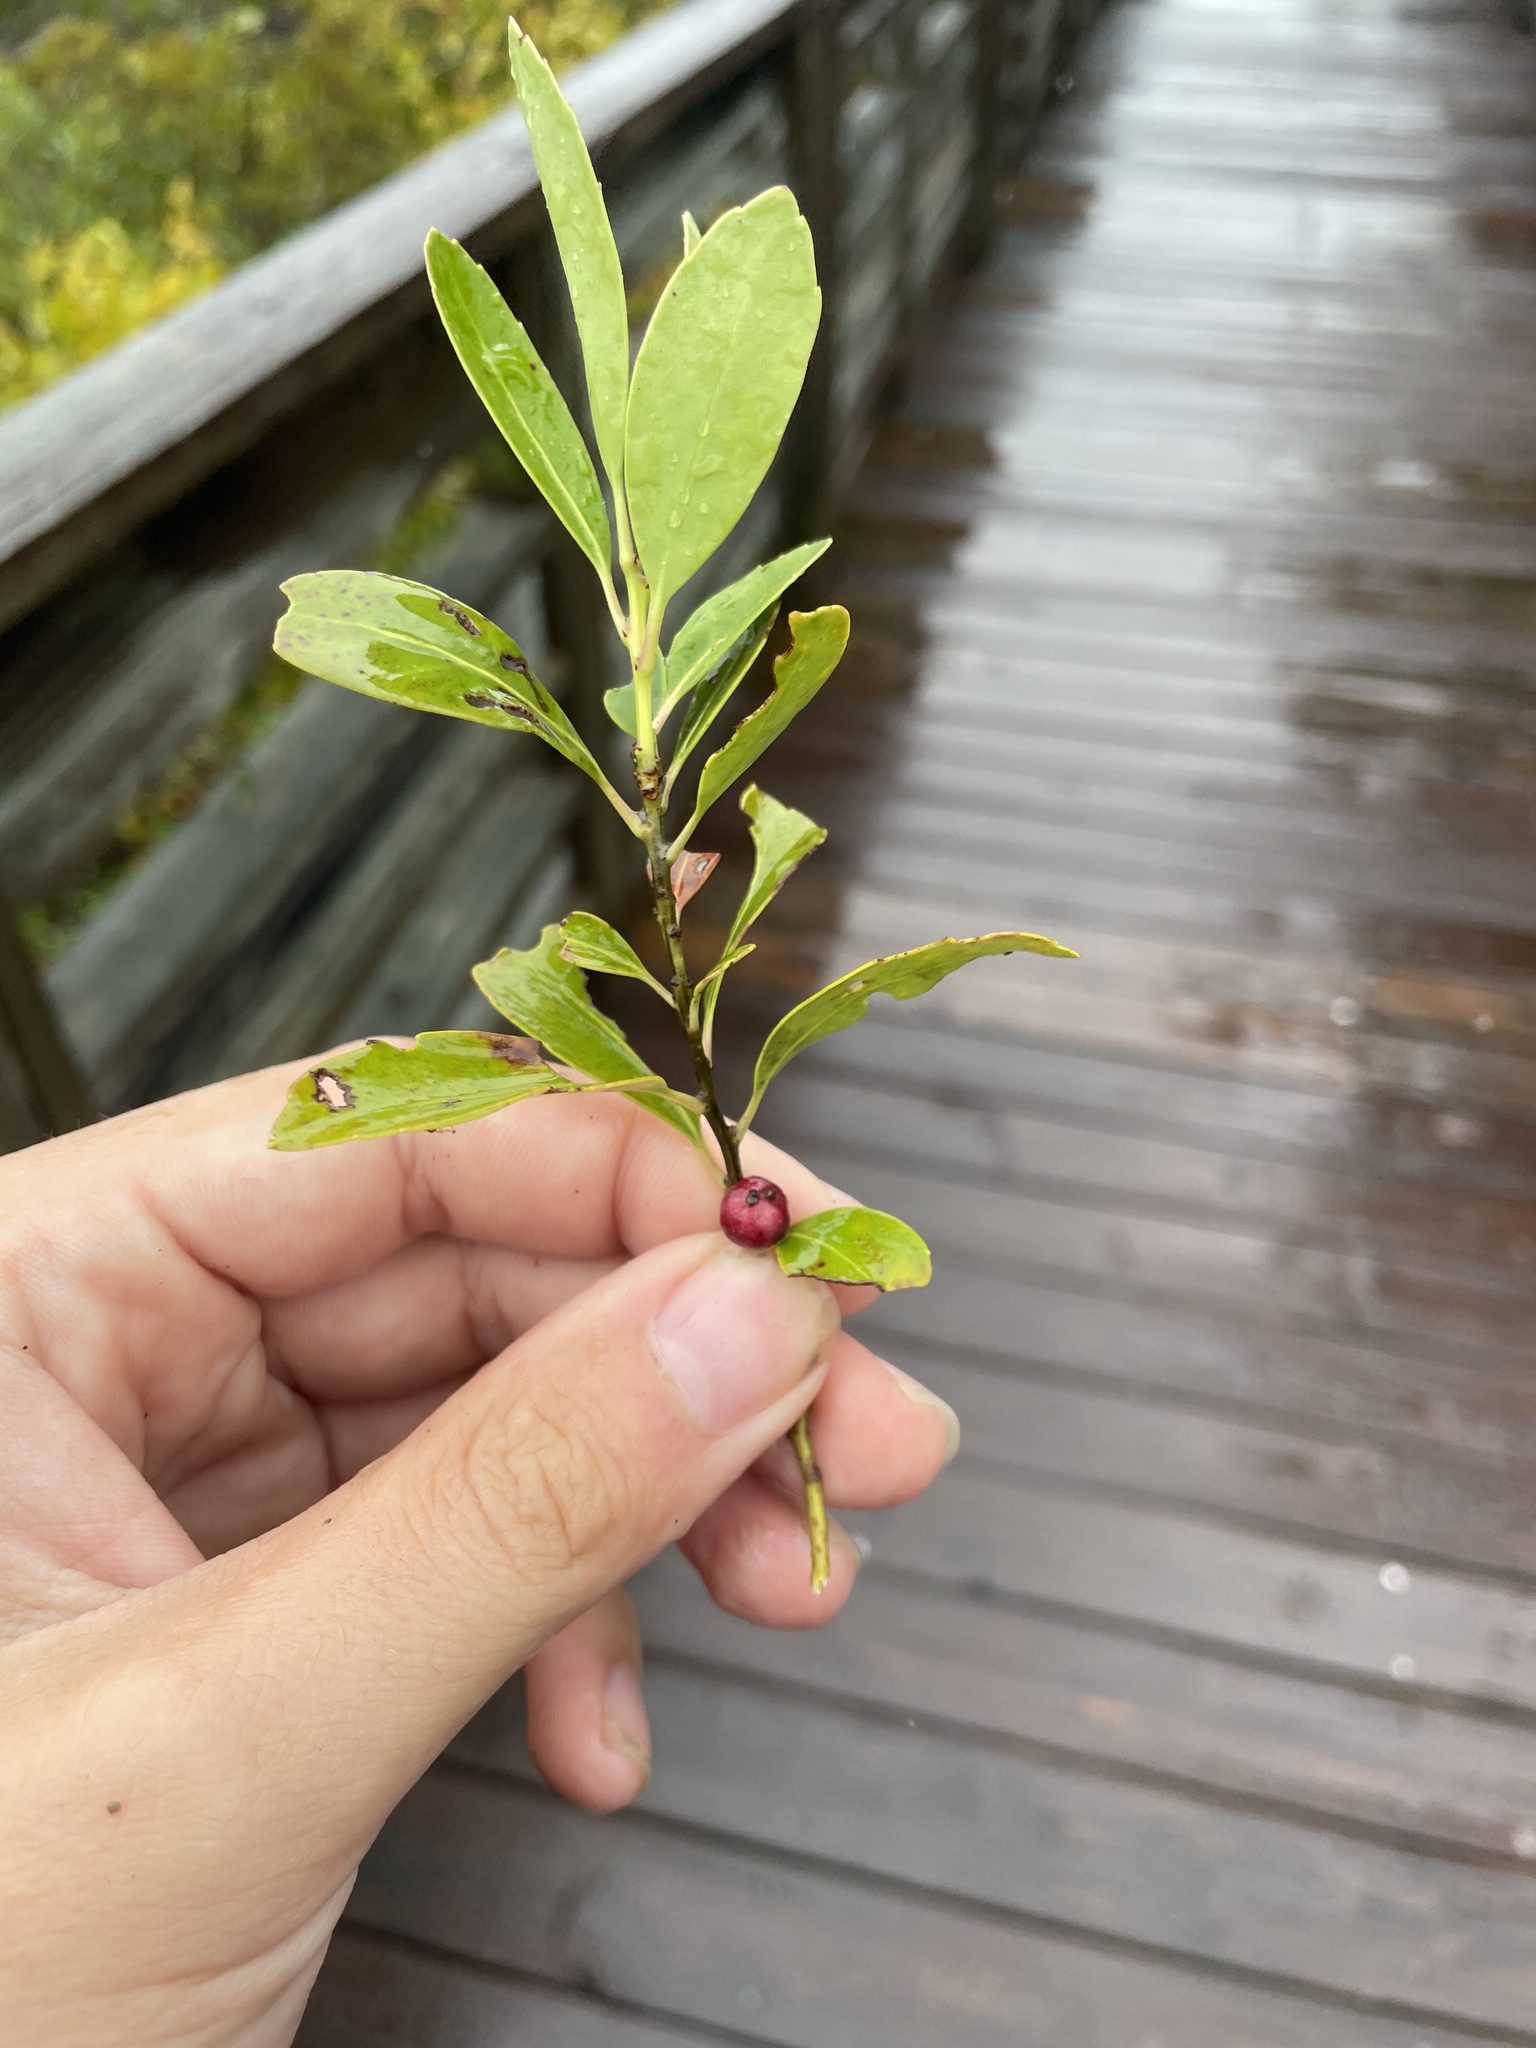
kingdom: Plantae
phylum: Tracheophyta
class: Magnoliopsida
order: Aquifoliales
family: Aquifoliaceae
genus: Ilex
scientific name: Ilex glabra
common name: Bitter gallberry
